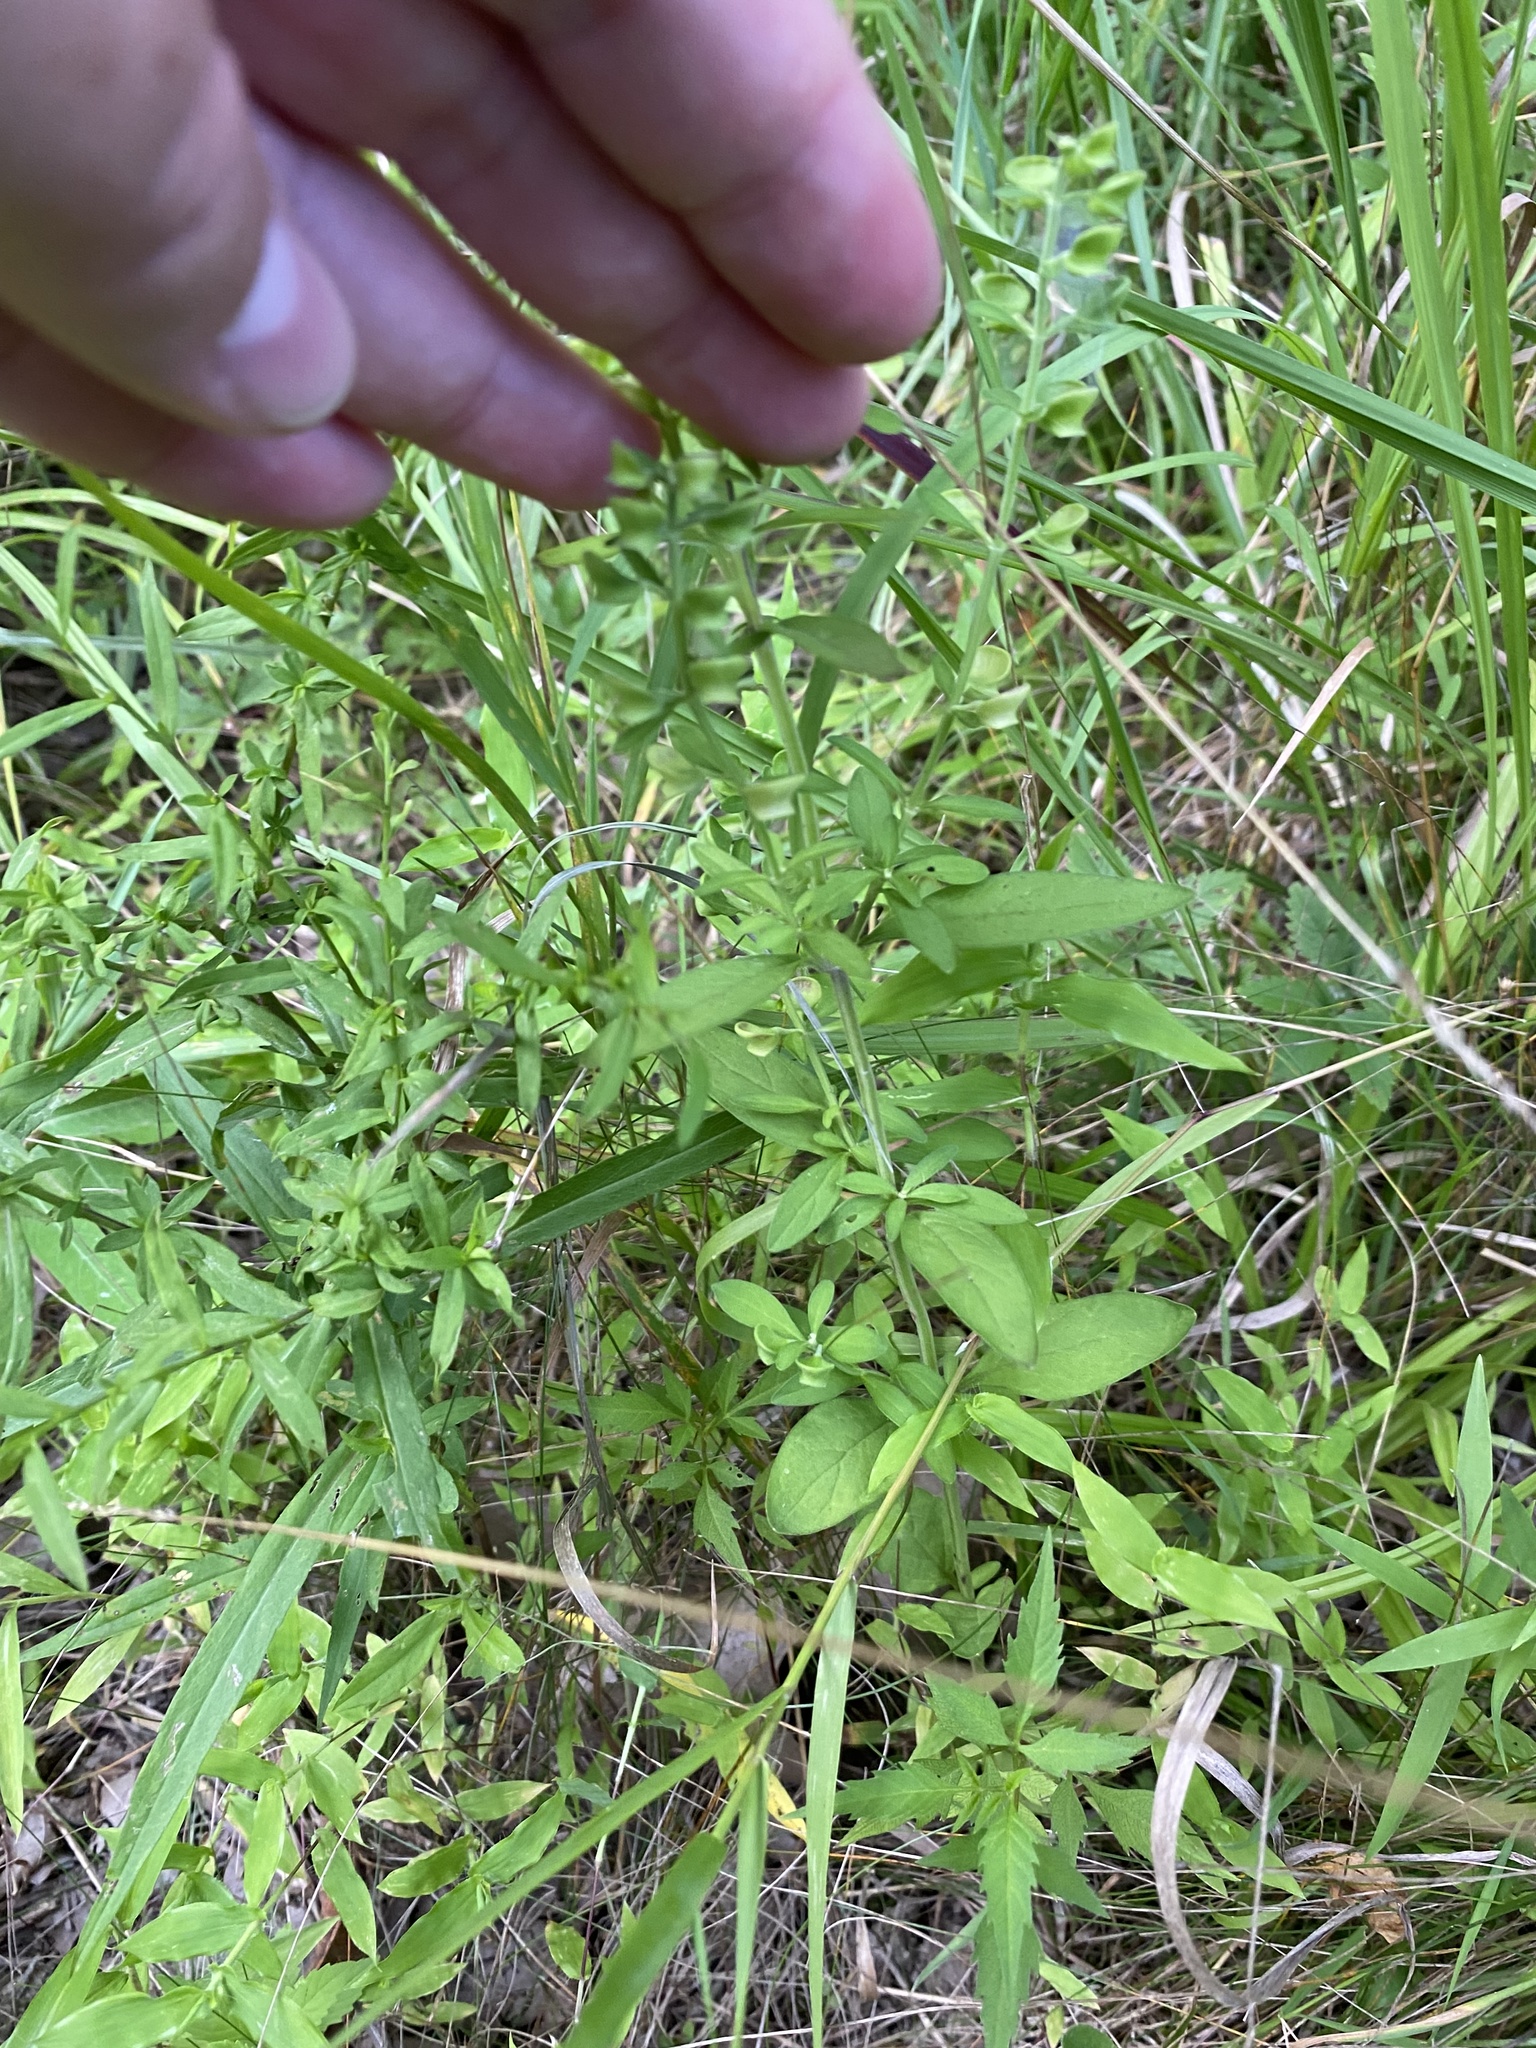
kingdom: Plantae
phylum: Tracheophyta
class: Magnoliopsida
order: Lamiales
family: Lamiaceae
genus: Scutellaria
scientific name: Scutellaria integrifolia
